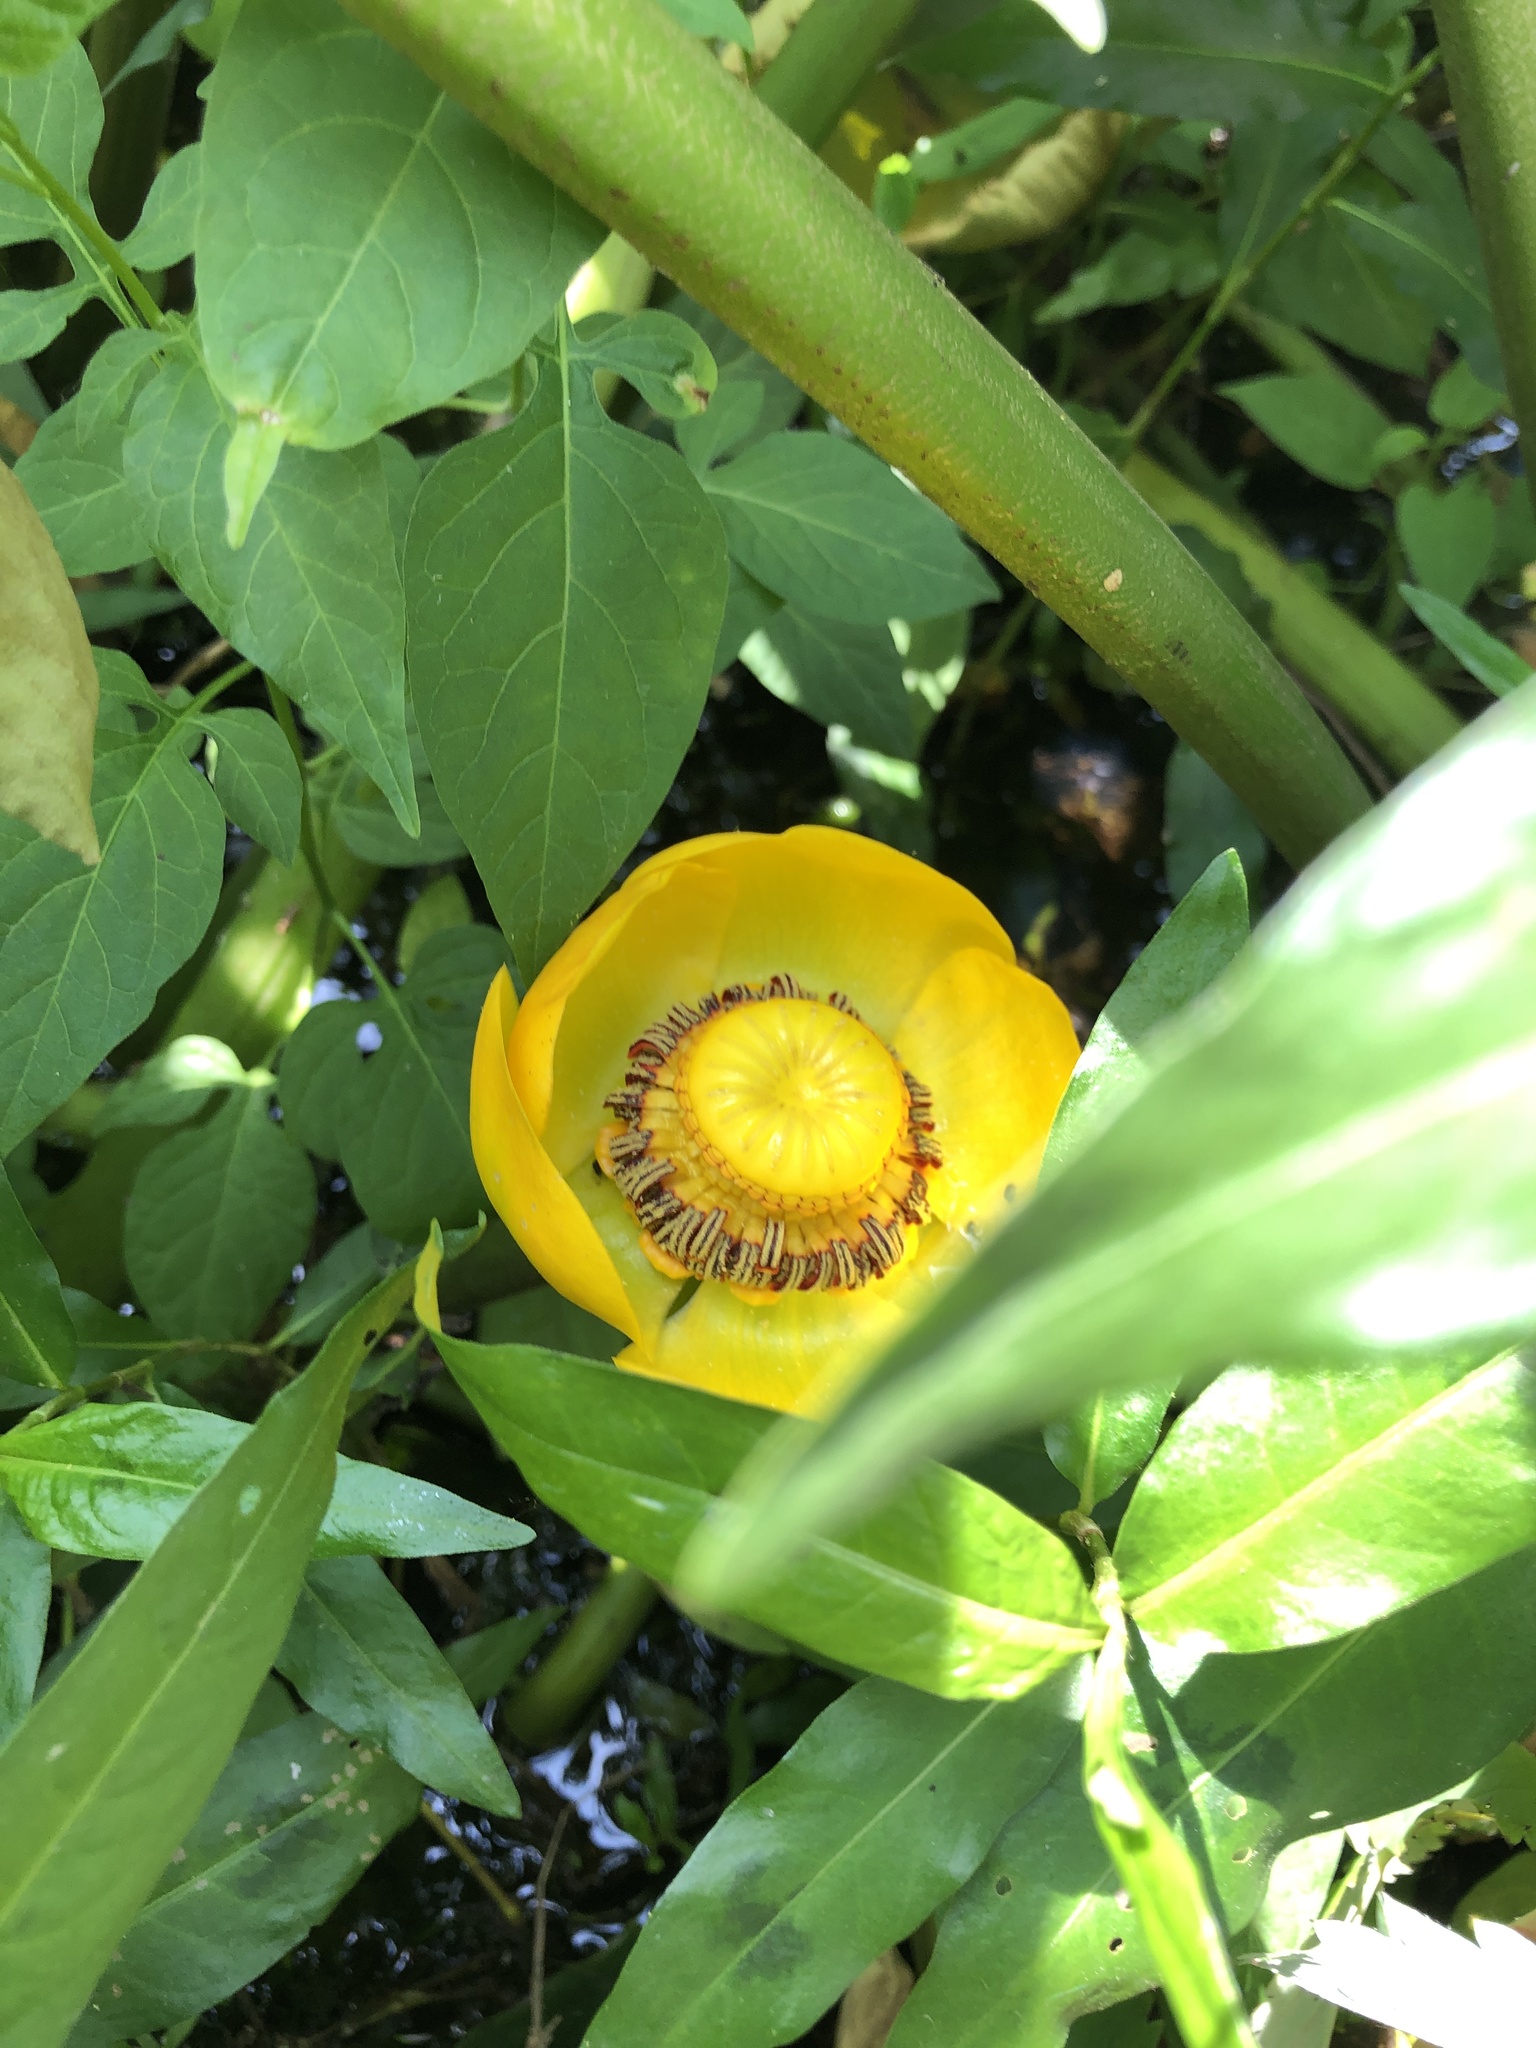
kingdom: Plantae
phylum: Tracheophyta
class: Magnoliopsida
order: Nymphaeales
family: Nymphaeaceae
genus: Nuphar
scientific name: Nuphar polysepala
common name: Rocky mountain cow-lily
